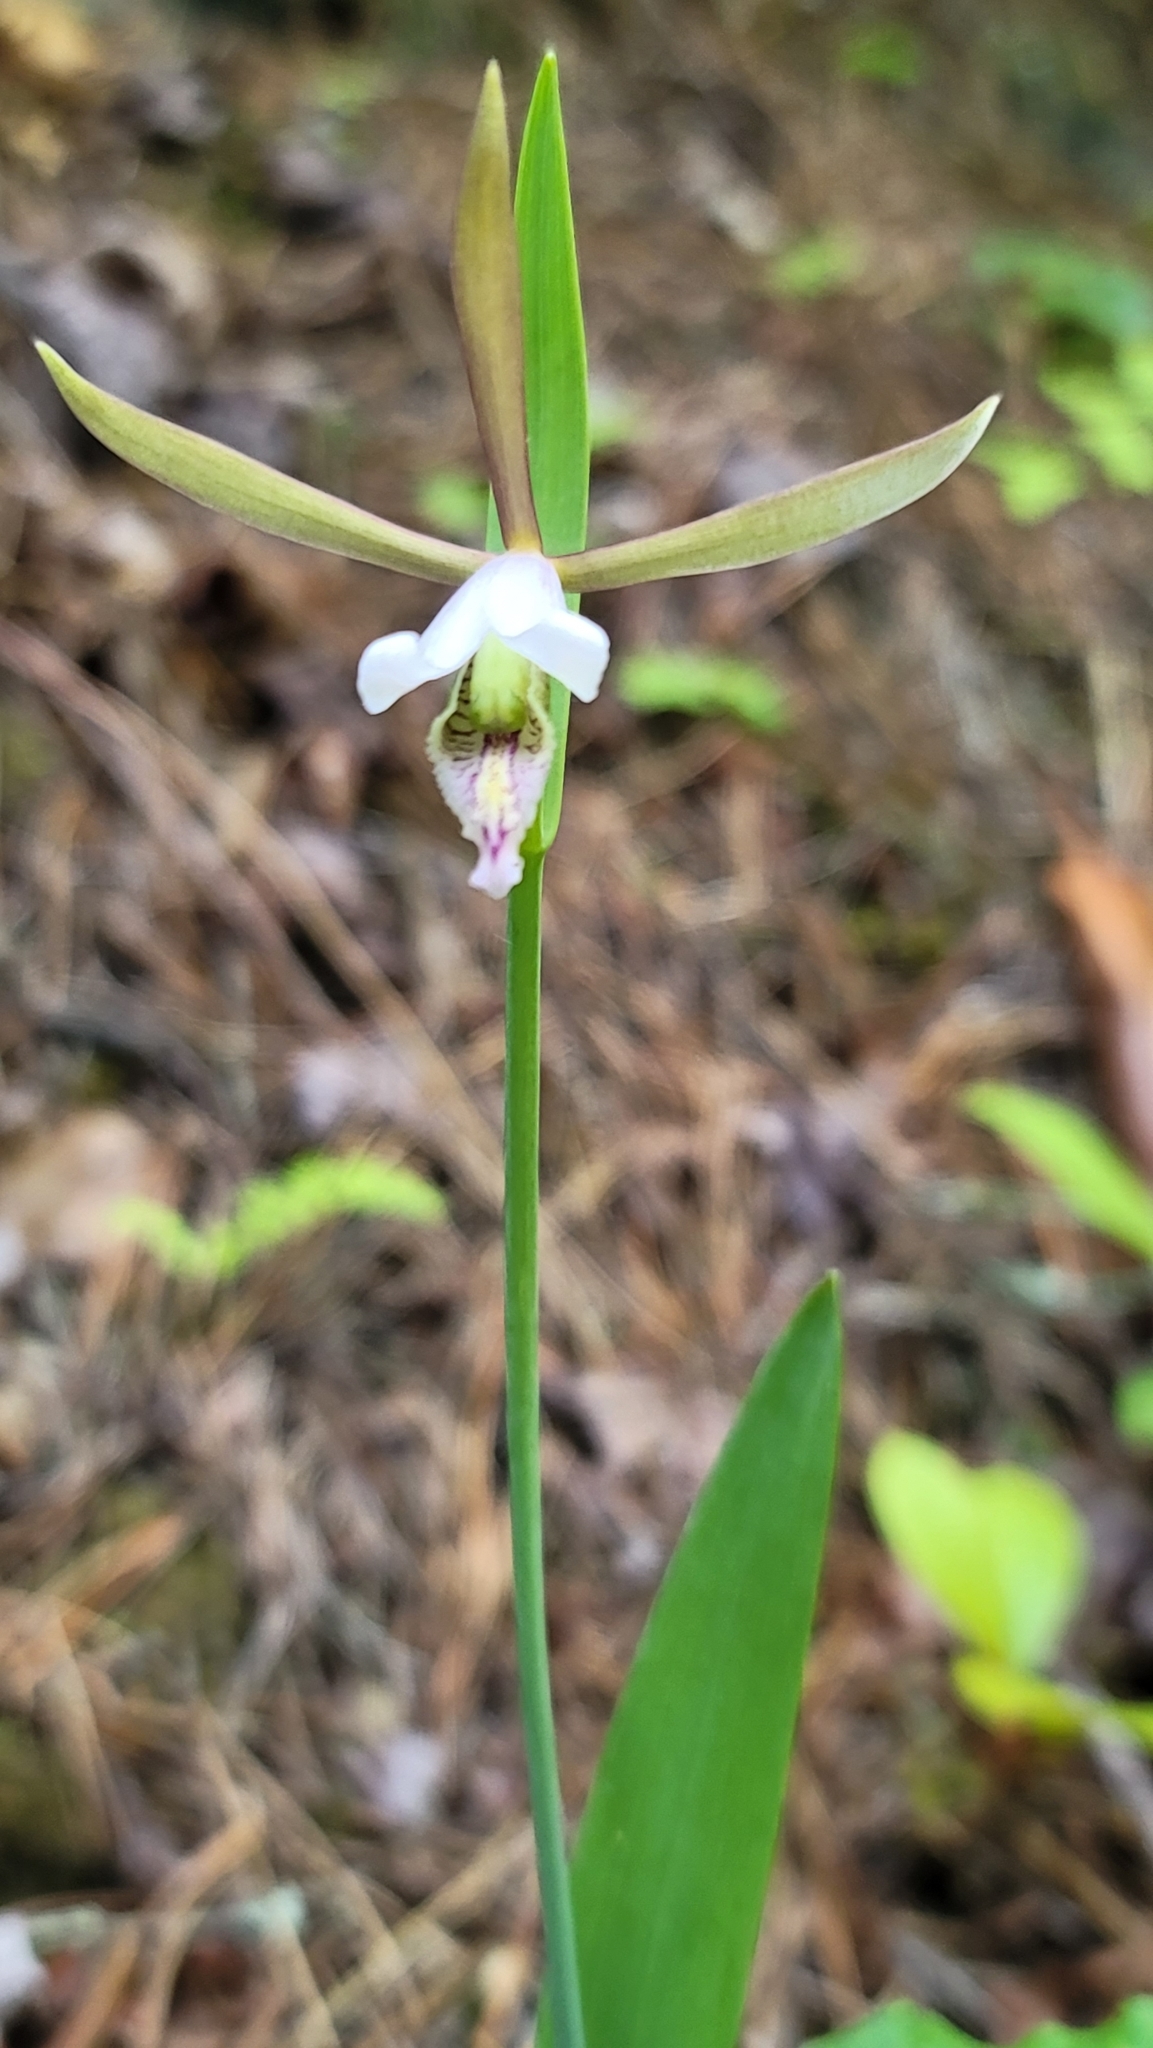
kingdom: Plantae
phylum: Tracheophyta
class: Liliopsida
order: Asparagales
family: Orchidaceae
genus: Cleistesiopsis
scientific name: Cleistesiopsis bifaria
